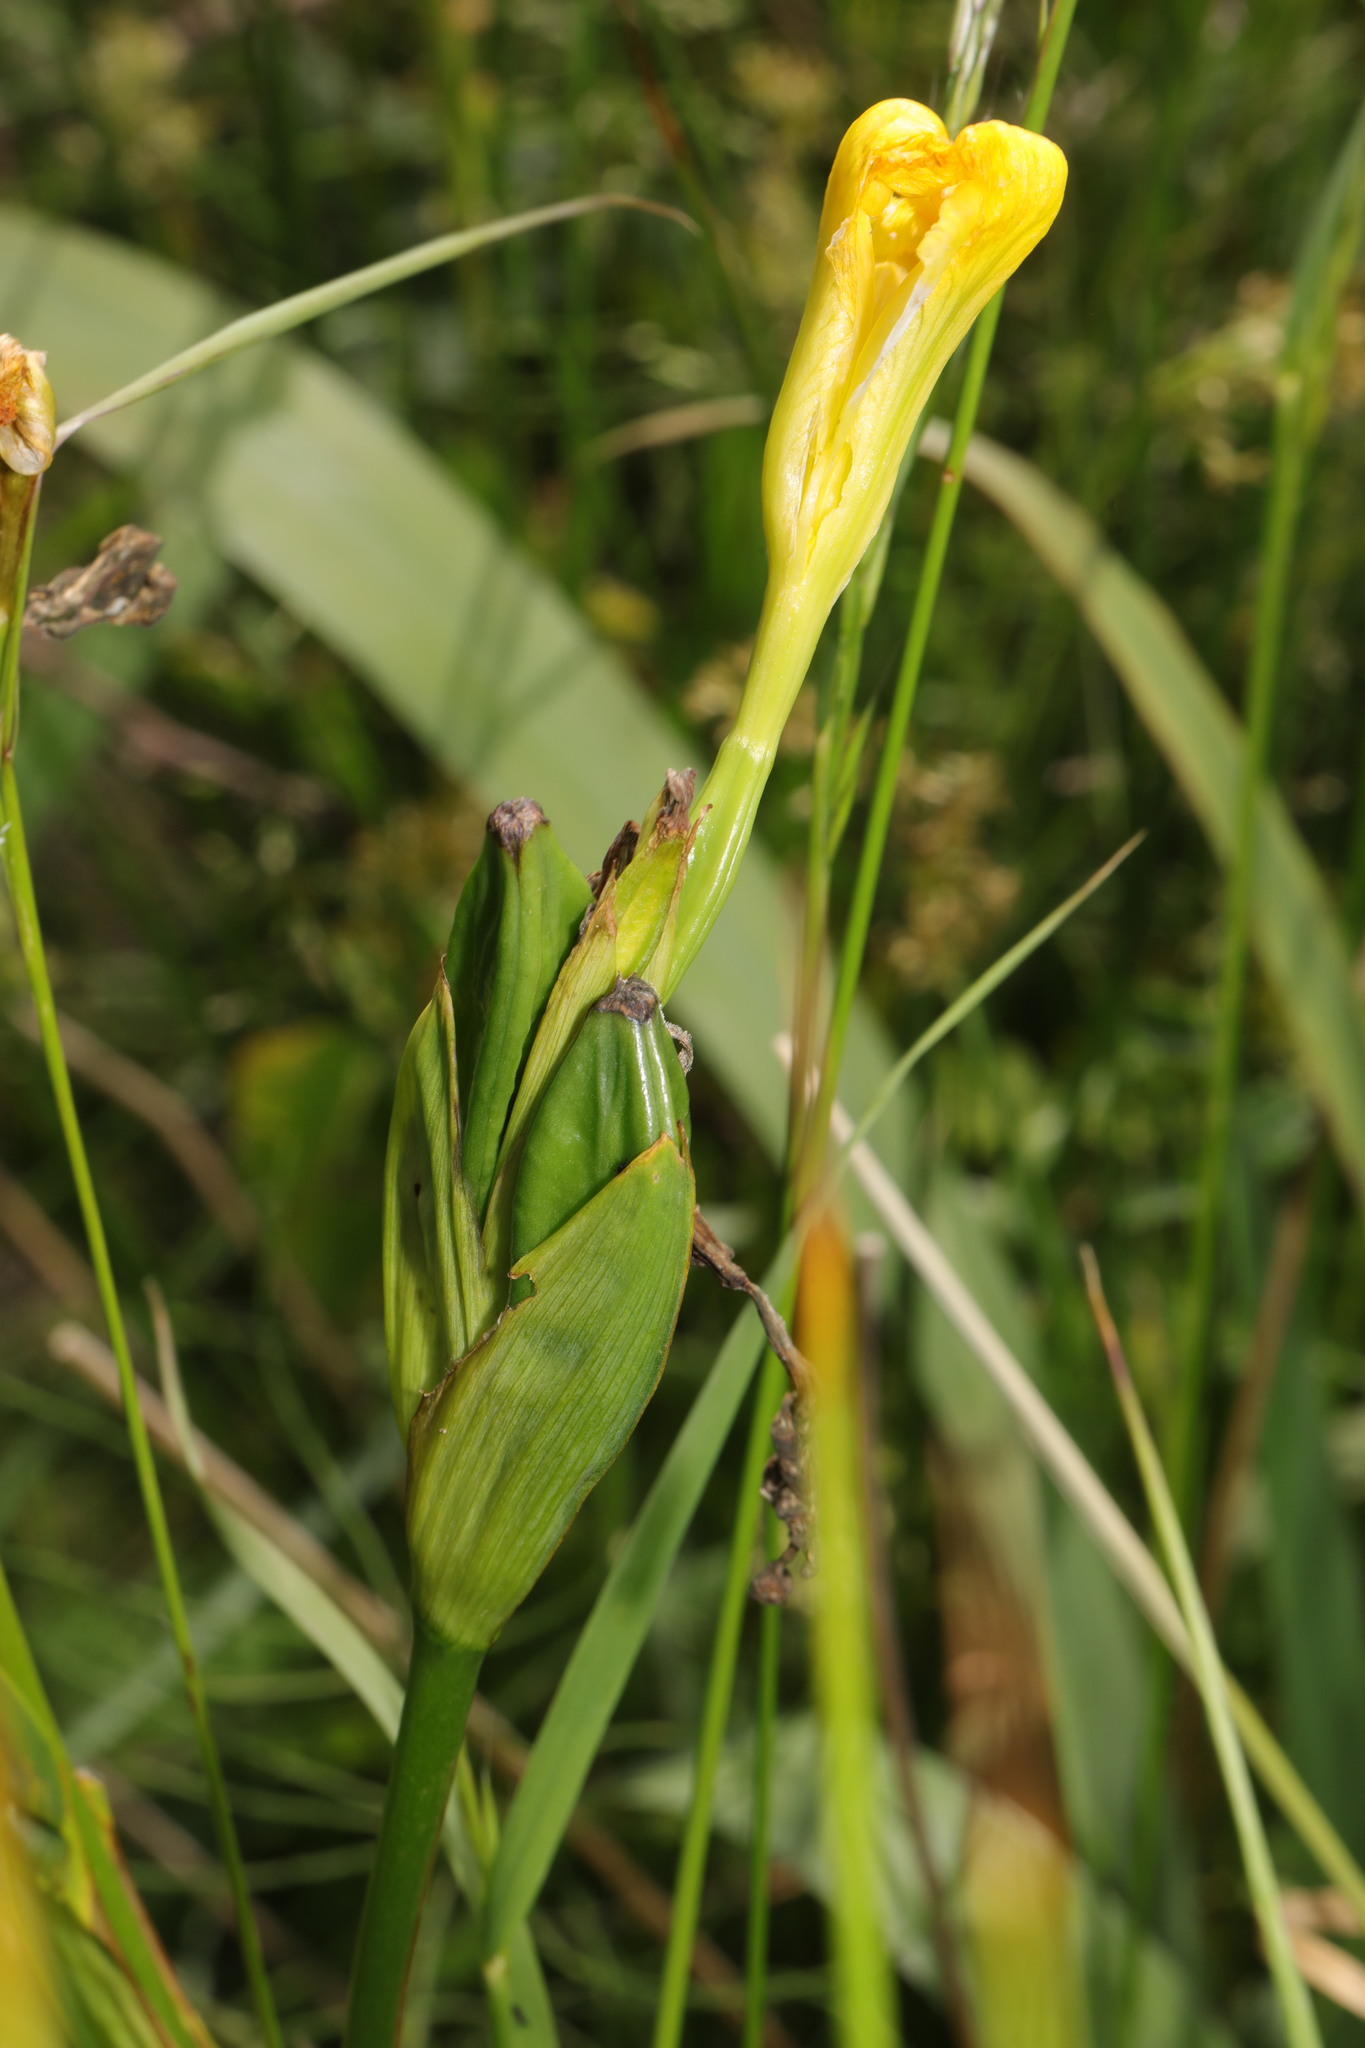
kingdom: Plantae
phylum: Tracheophyta
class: Liliopsida
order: Asparagales
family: Iridaceae
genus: Iris
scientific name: Iris pseudacorus
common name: Yellow flag
